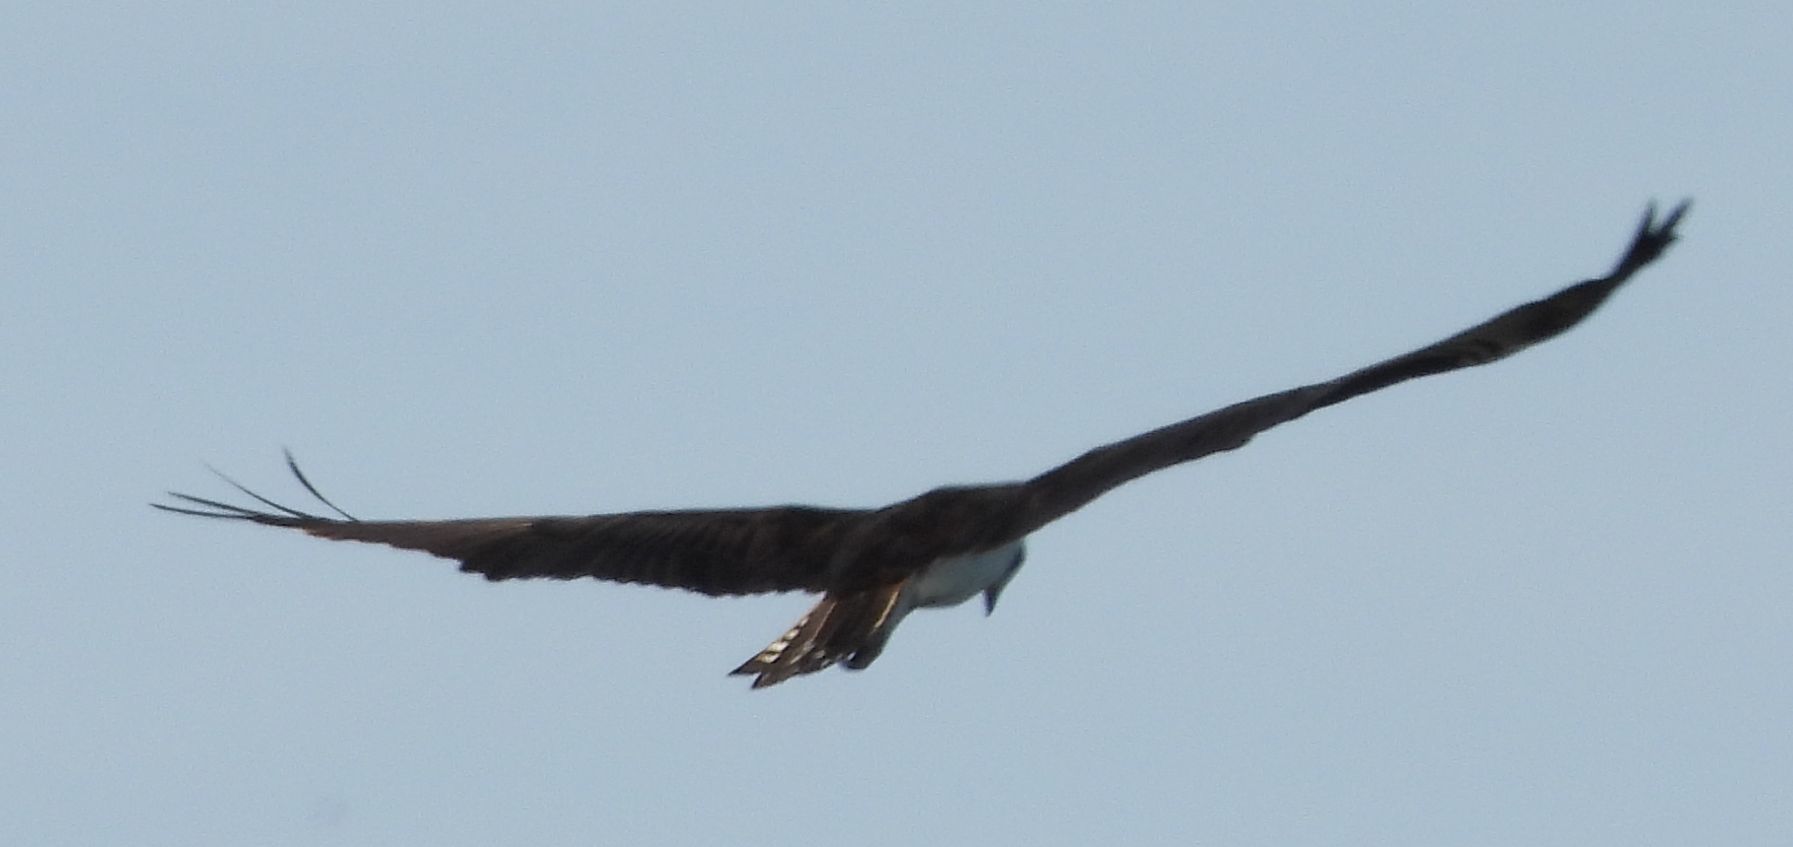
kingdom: Animalia
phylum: Chordata
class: Aves
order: Accipitriformes
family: Pandionidae
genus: Pandion
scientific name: Pandion haliaetus
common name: Osprey
